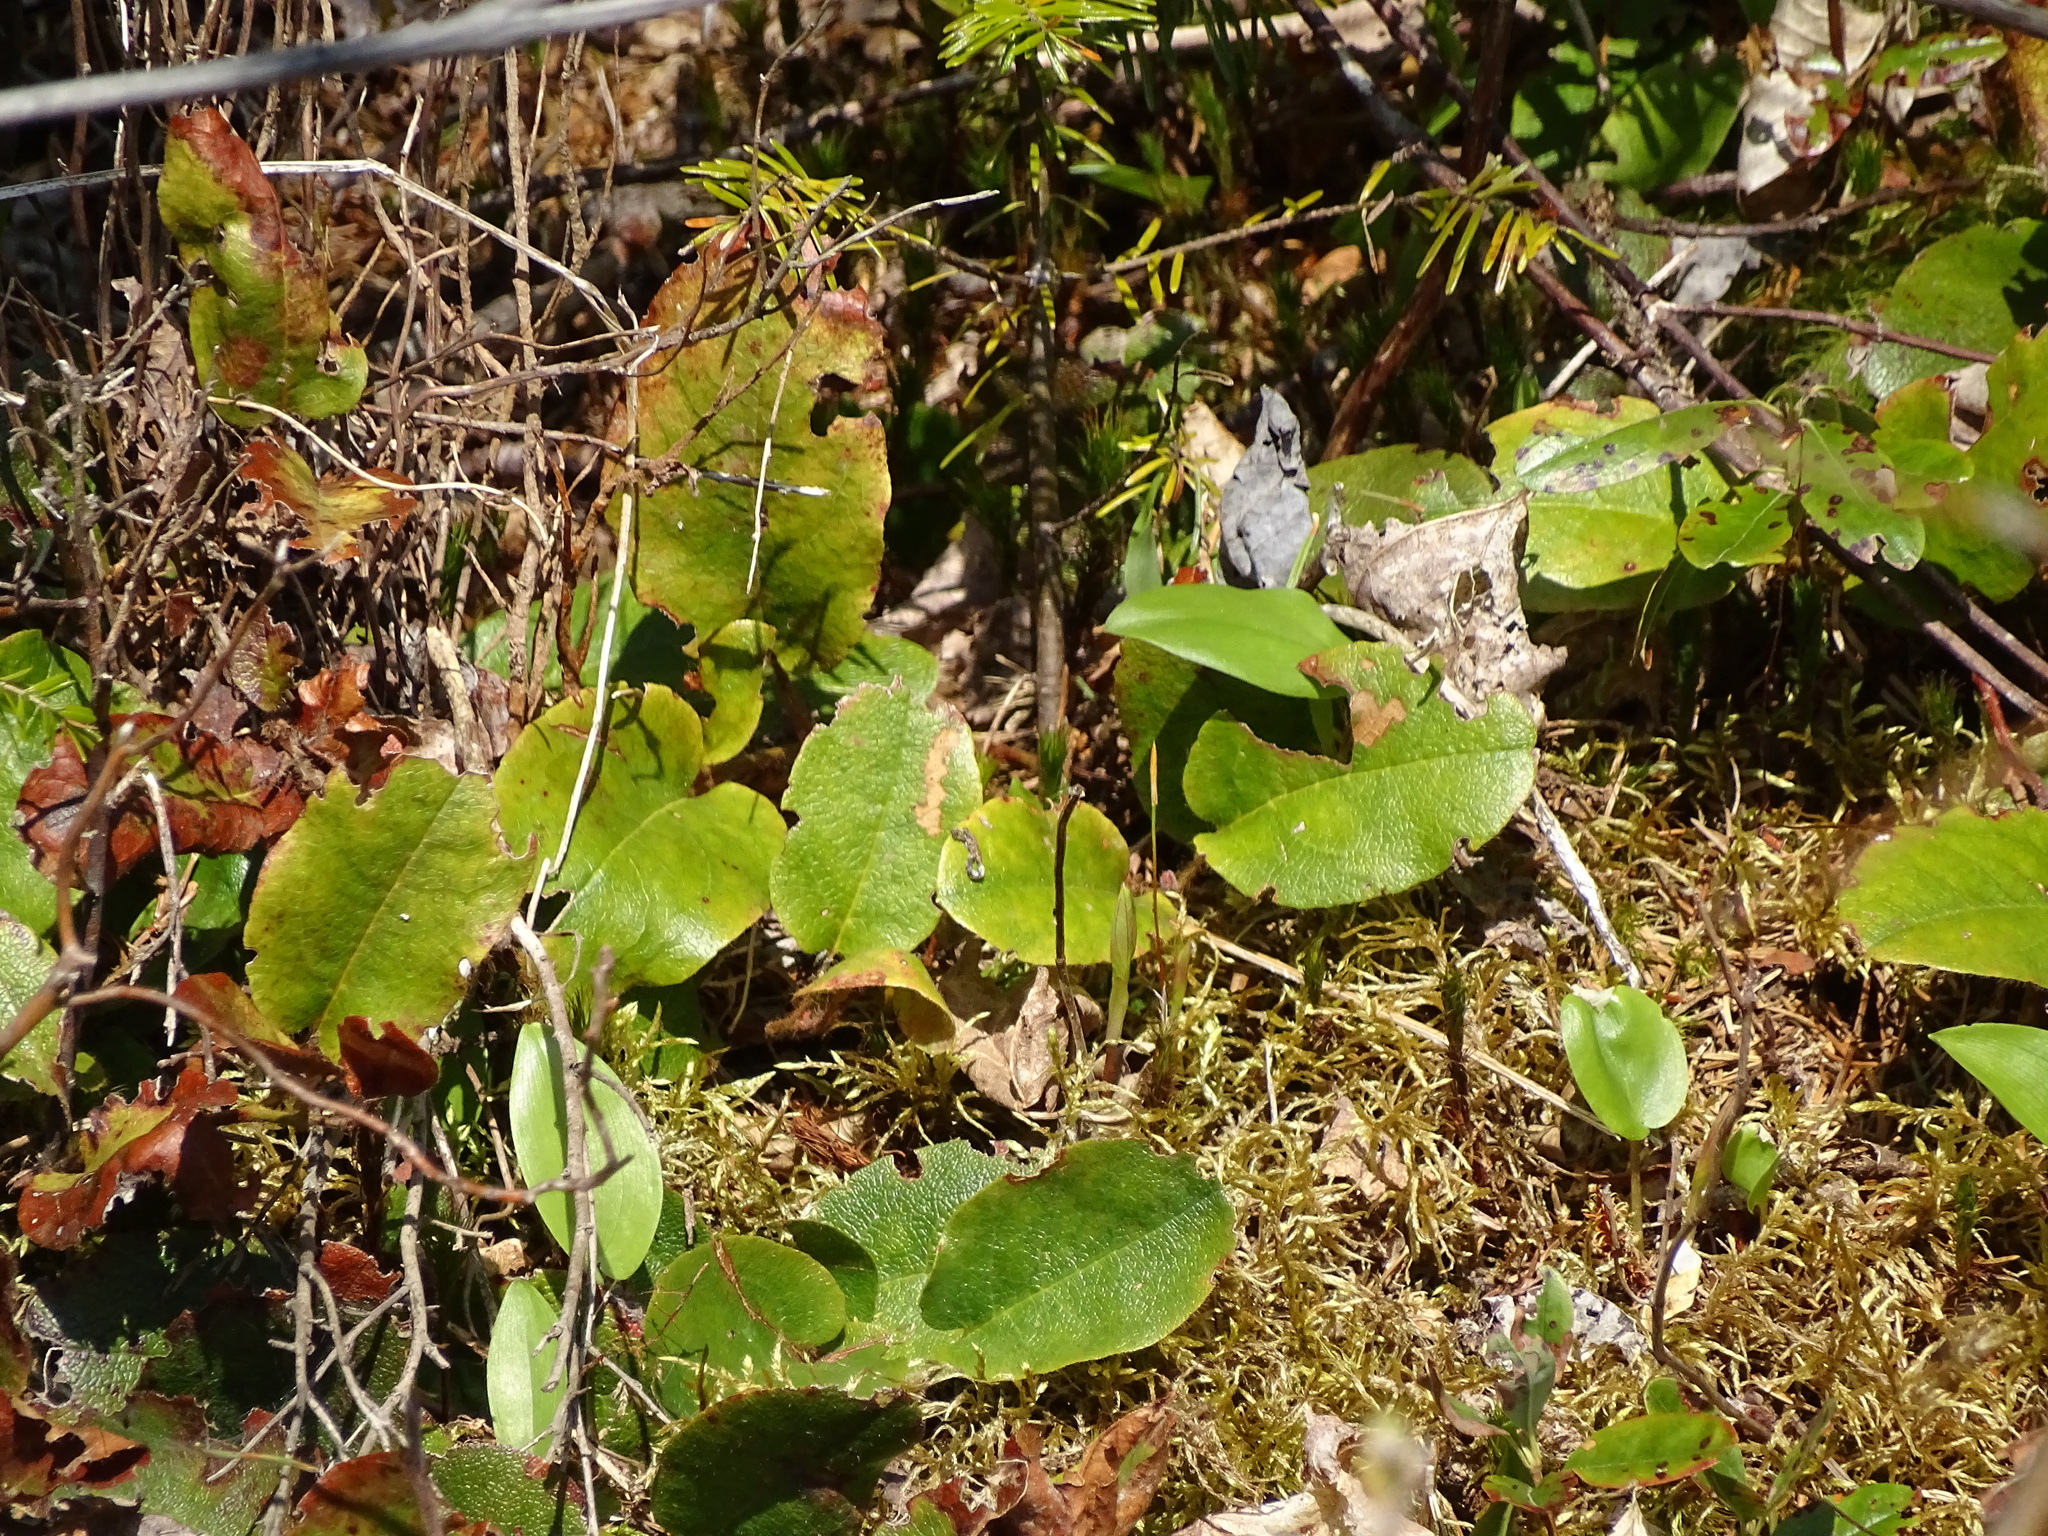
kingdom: Plantae
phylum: Tracheophyta
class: Magnoliopsida
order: Ericales
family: Ericaceae
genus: Epigaea
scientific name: Epigaea repens
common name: Gravelroot
